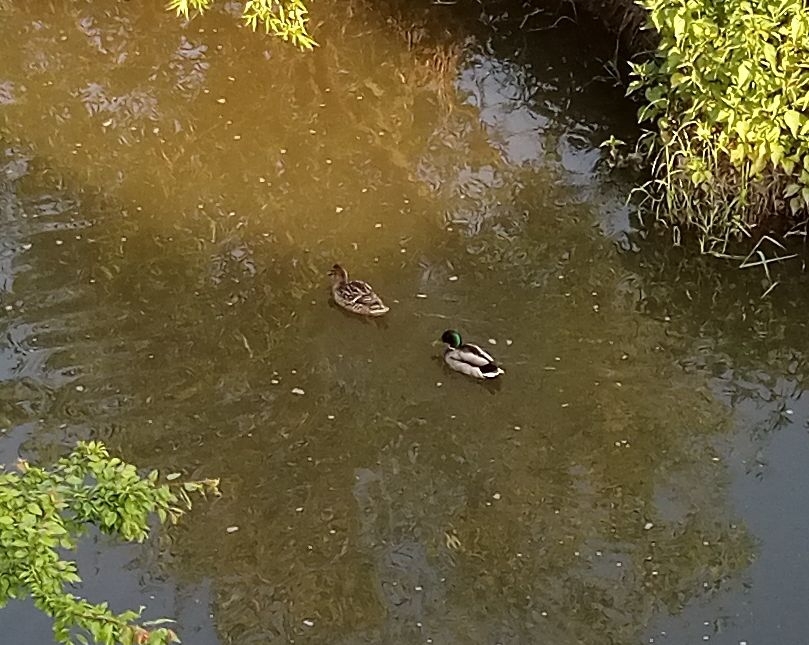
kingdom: Animalia
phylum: Chordata
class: Aves
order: Anseriformes
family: Anatidae
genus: Anas
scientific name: Anas platyrhynchos
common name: Mallard
